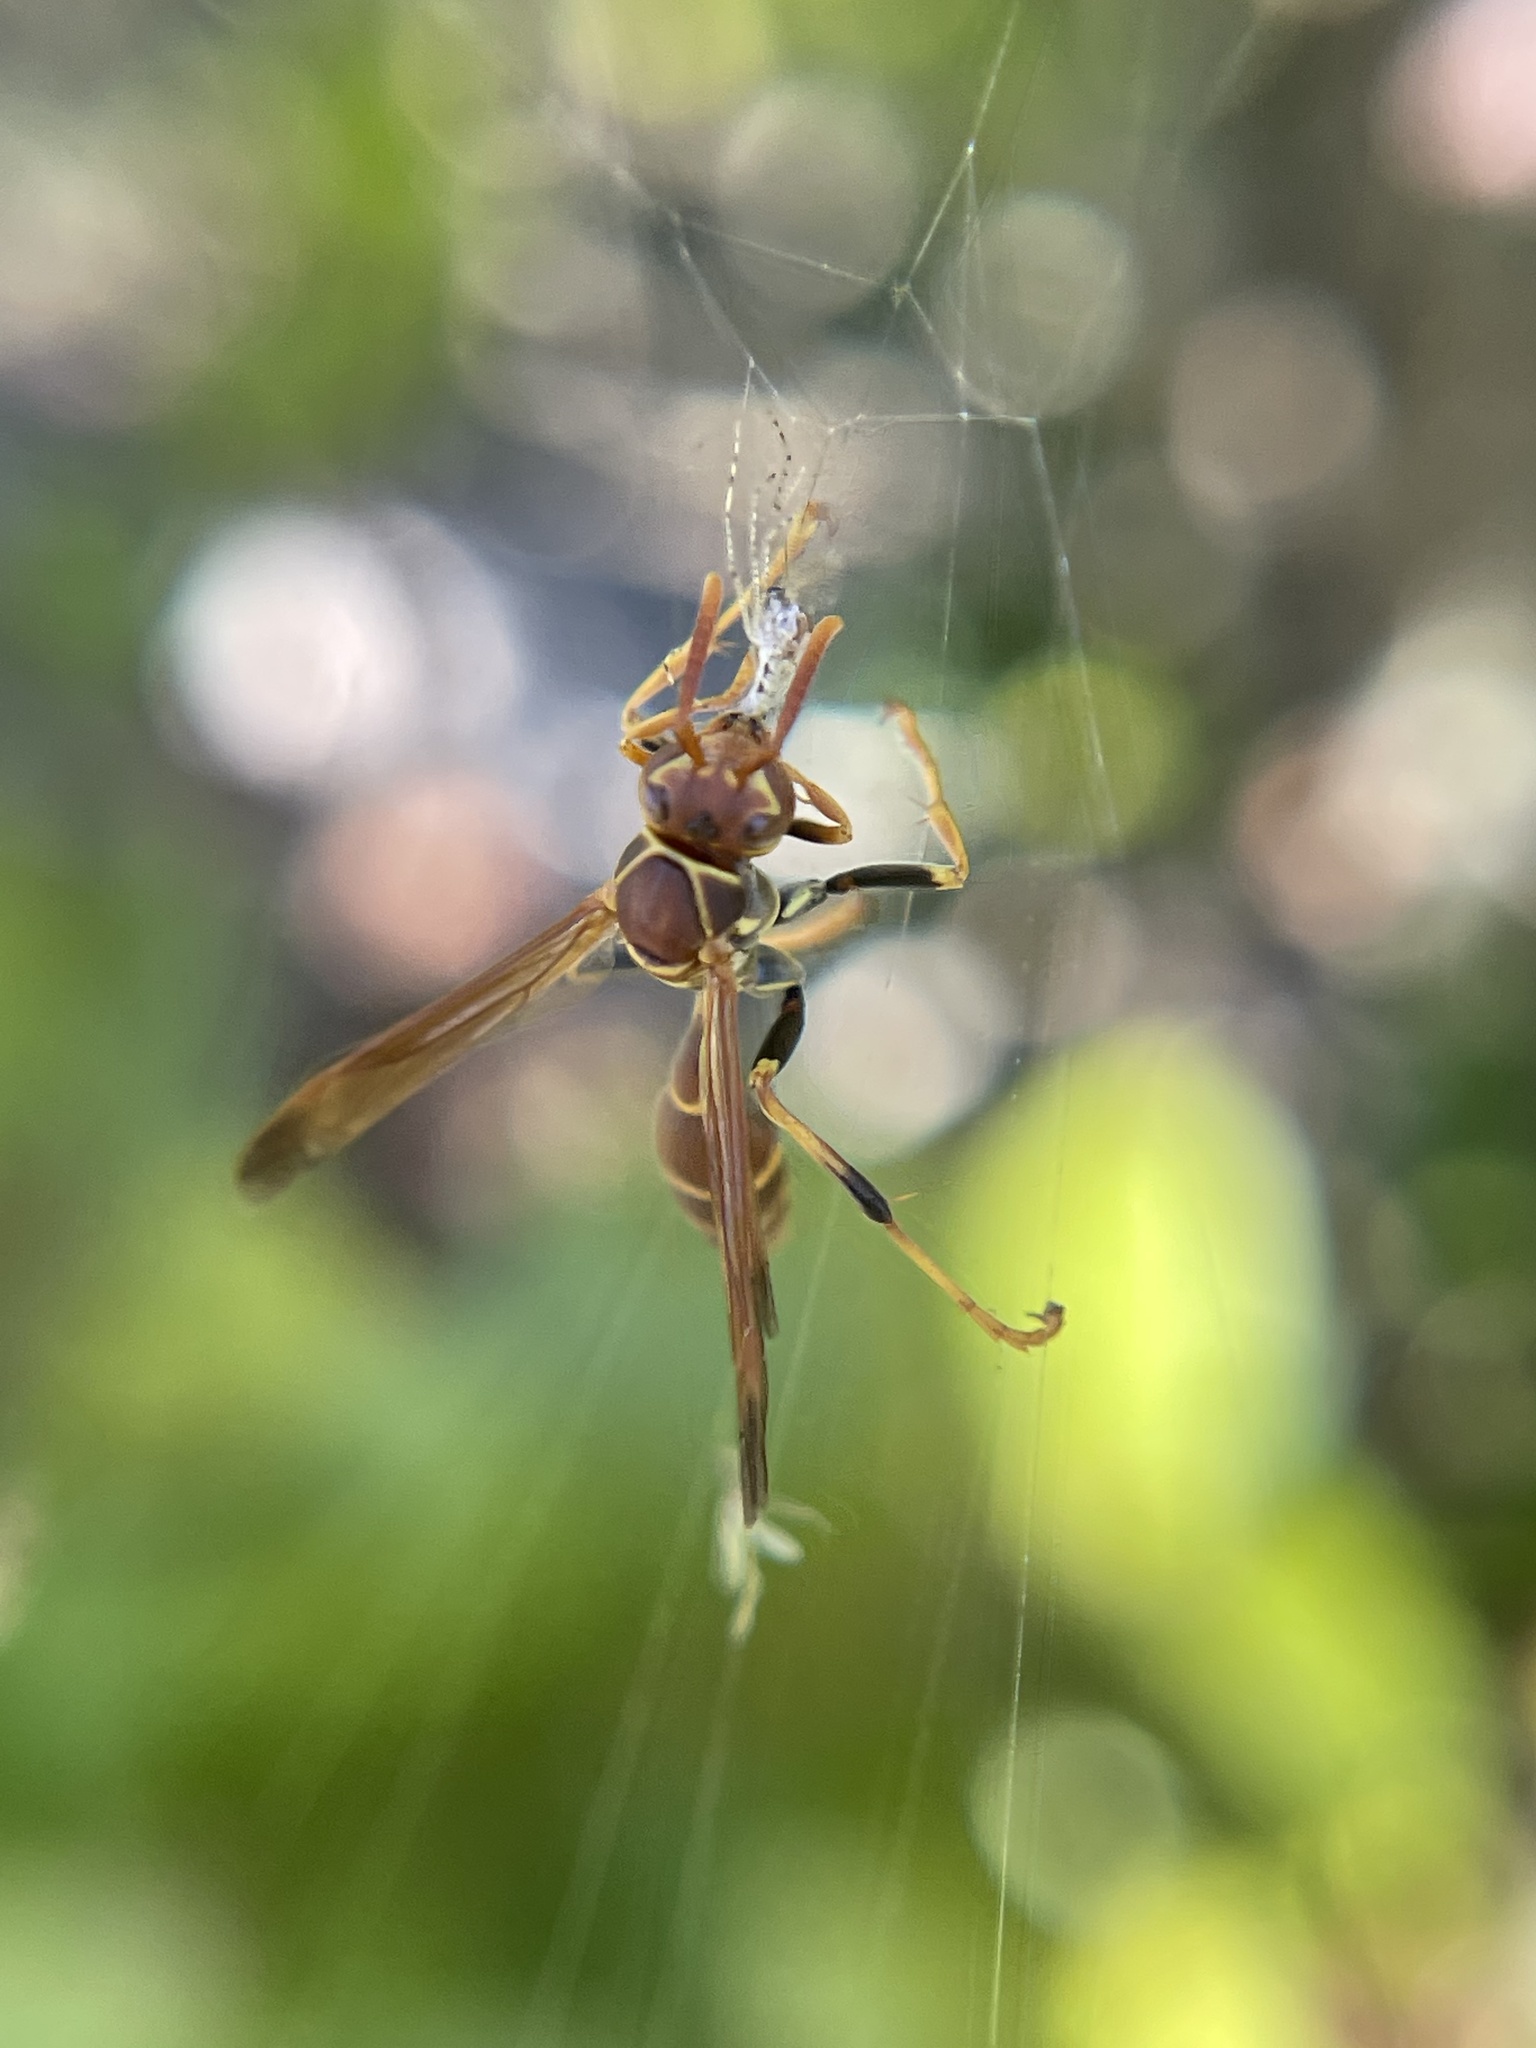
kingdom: Animalia
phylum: Arthropoda
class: Insecta
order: Hymenoptera
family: Vespidae
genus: Mischocyttarus
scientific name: Mischocyttarus mexicanus
